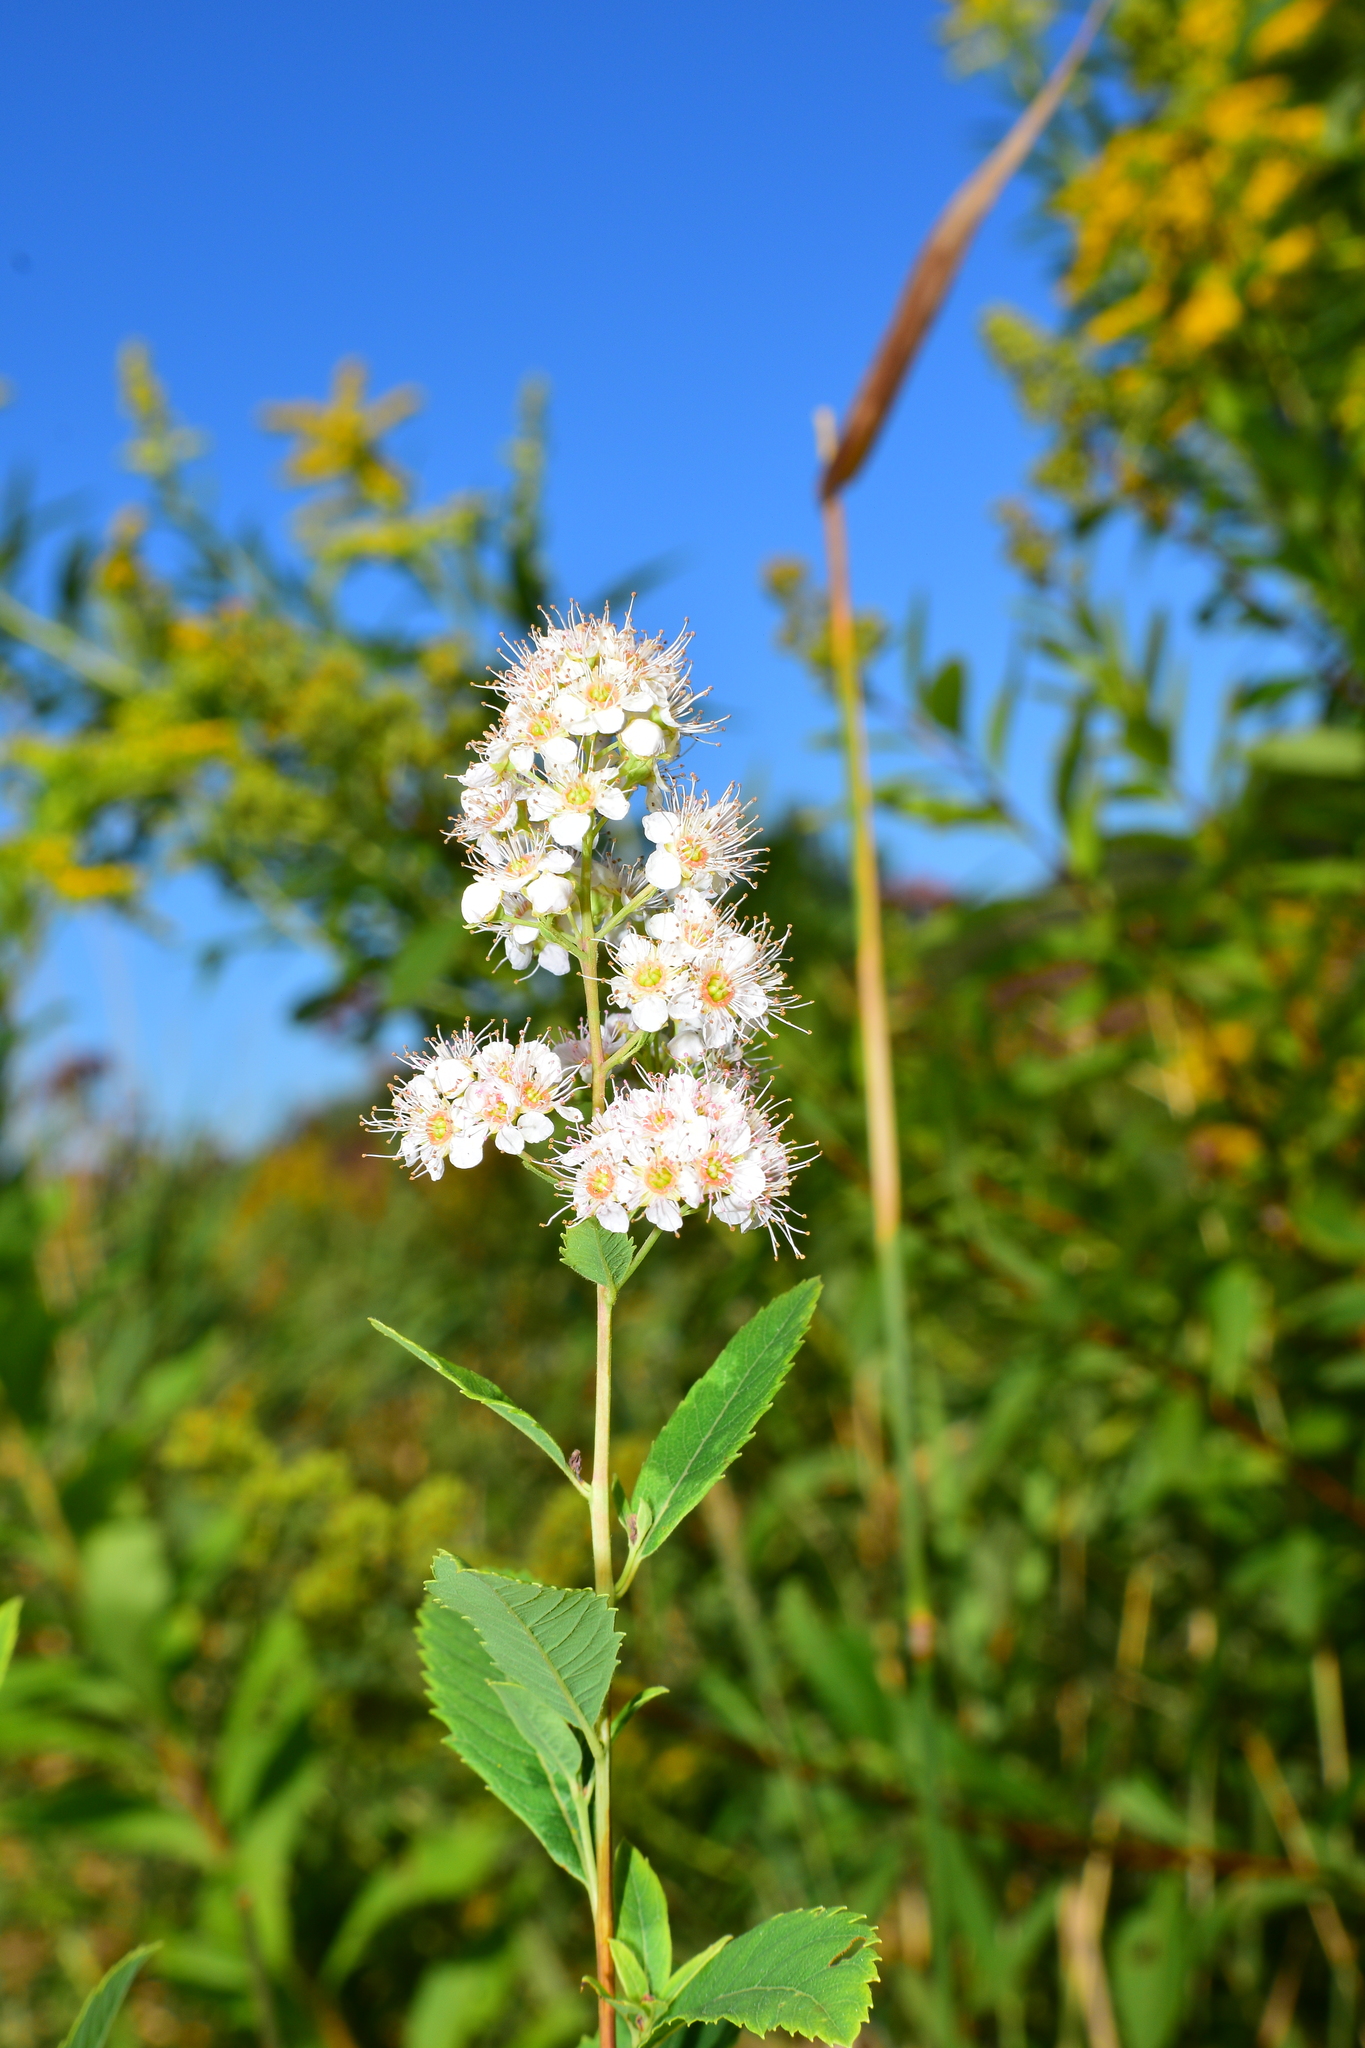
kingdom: Plantae
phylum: Tracheophyta
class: Magnoliopsida
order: Rosales
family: Rosaceae
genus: Spiraea
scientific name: Spiraea alba
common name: Pale bridewort
